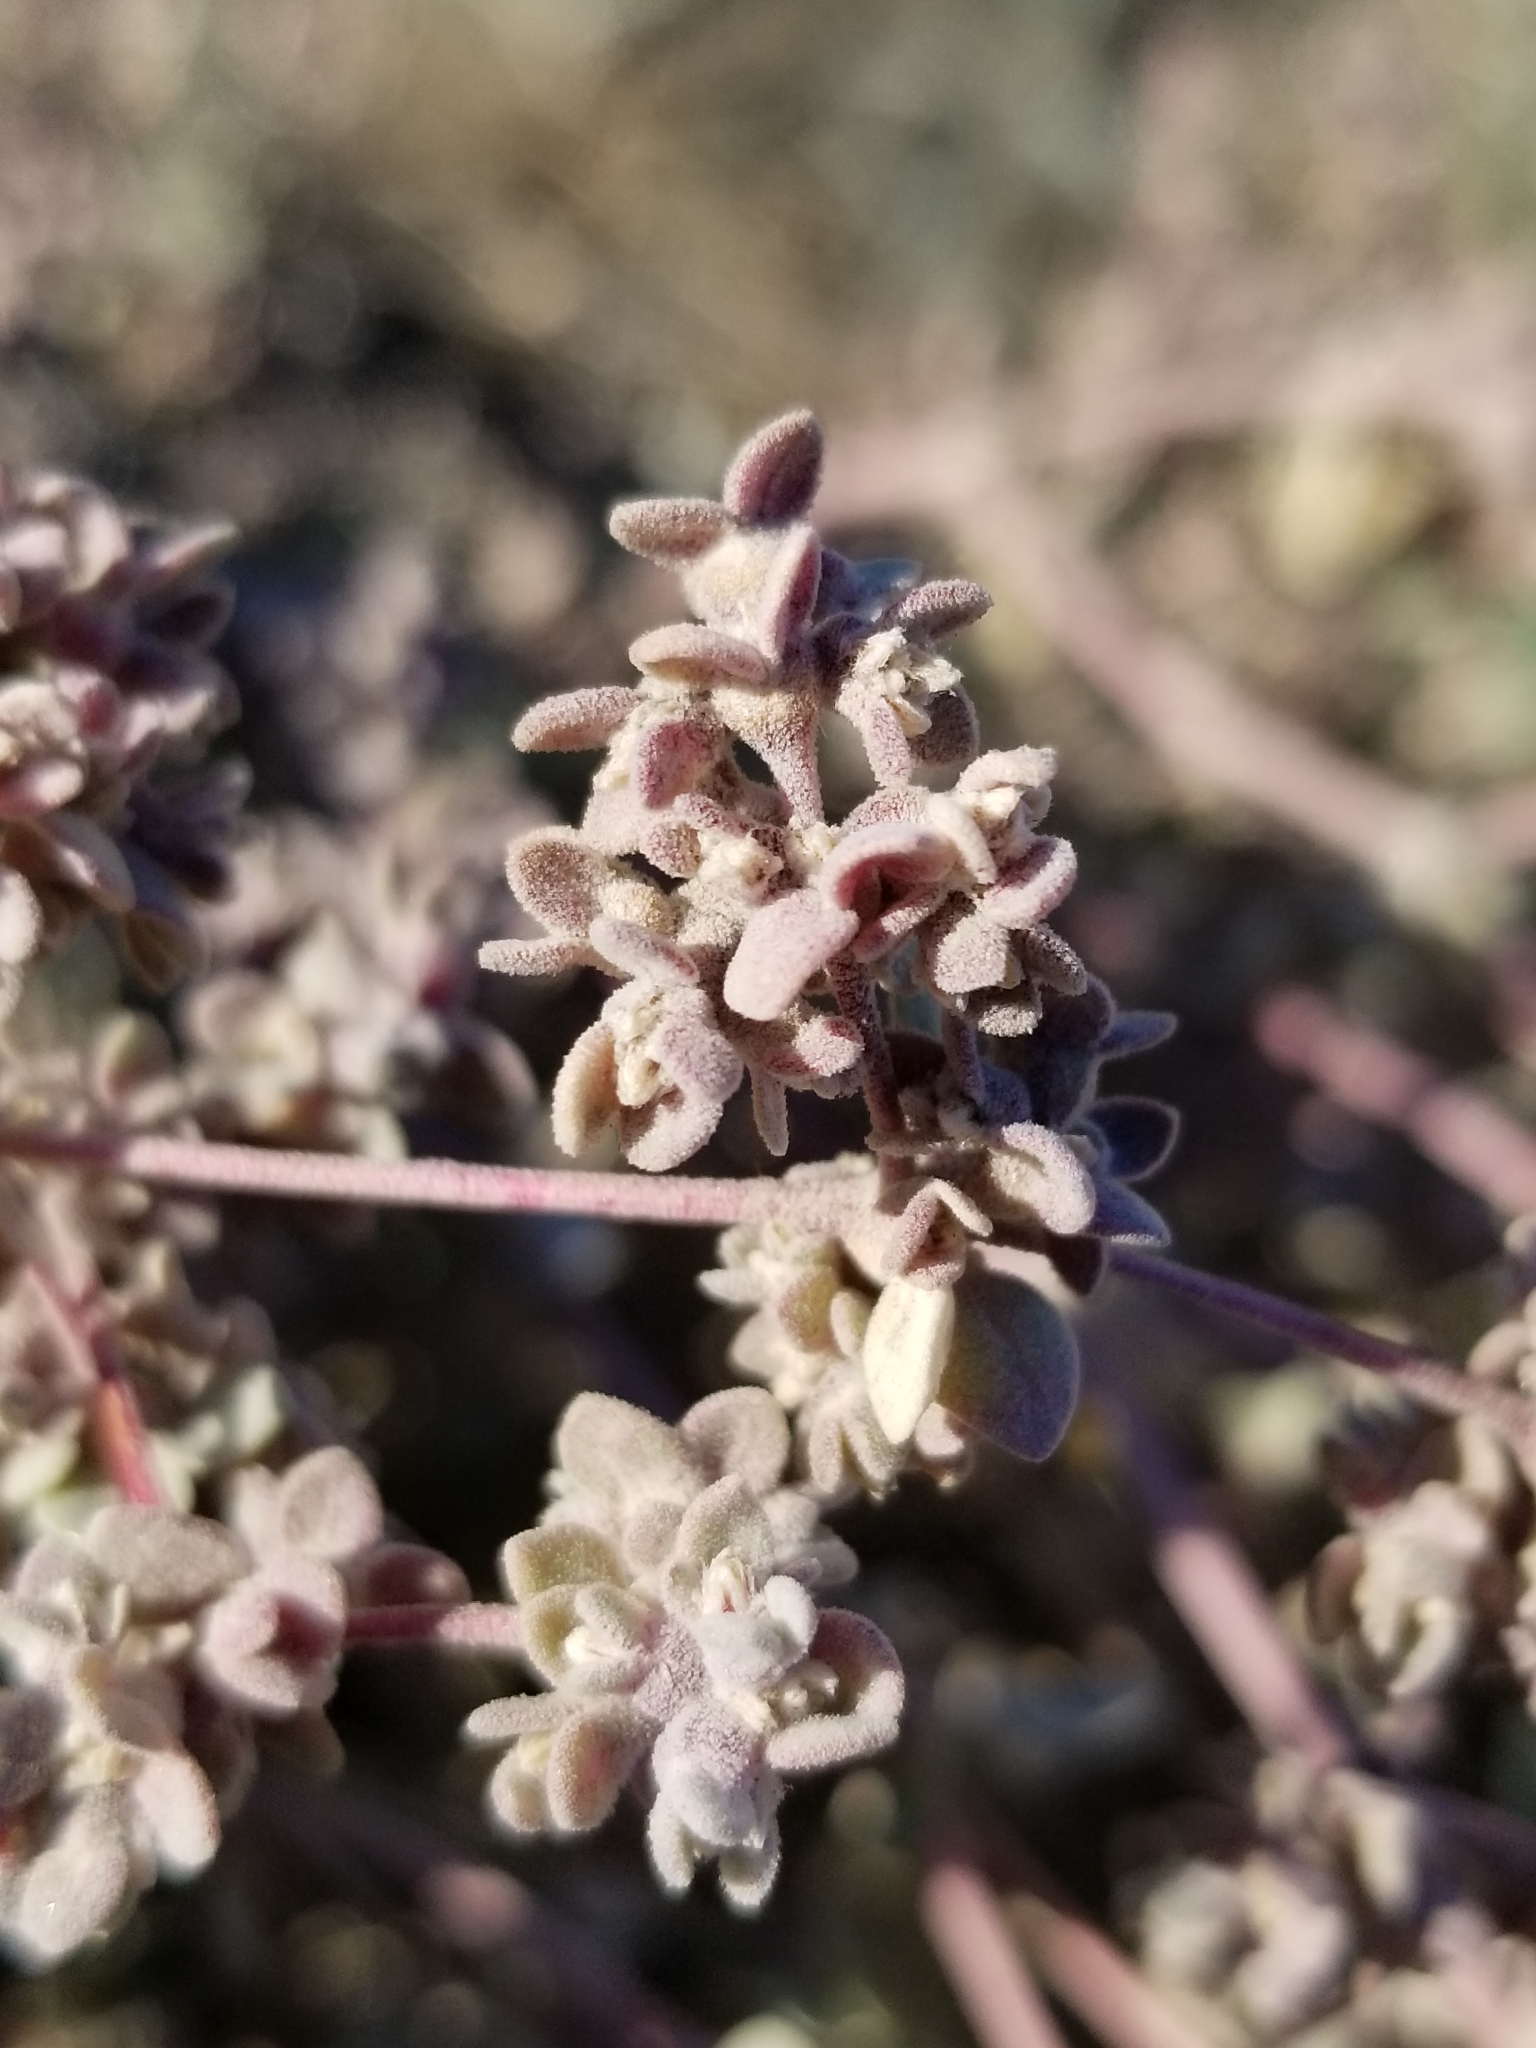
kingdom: Plantae
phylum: Tracheophyta
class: Magnoliopsida
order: Caryophyllales
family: Amaranthaceae
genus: Tidestromia
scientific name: Tidestromia suffruticosa
